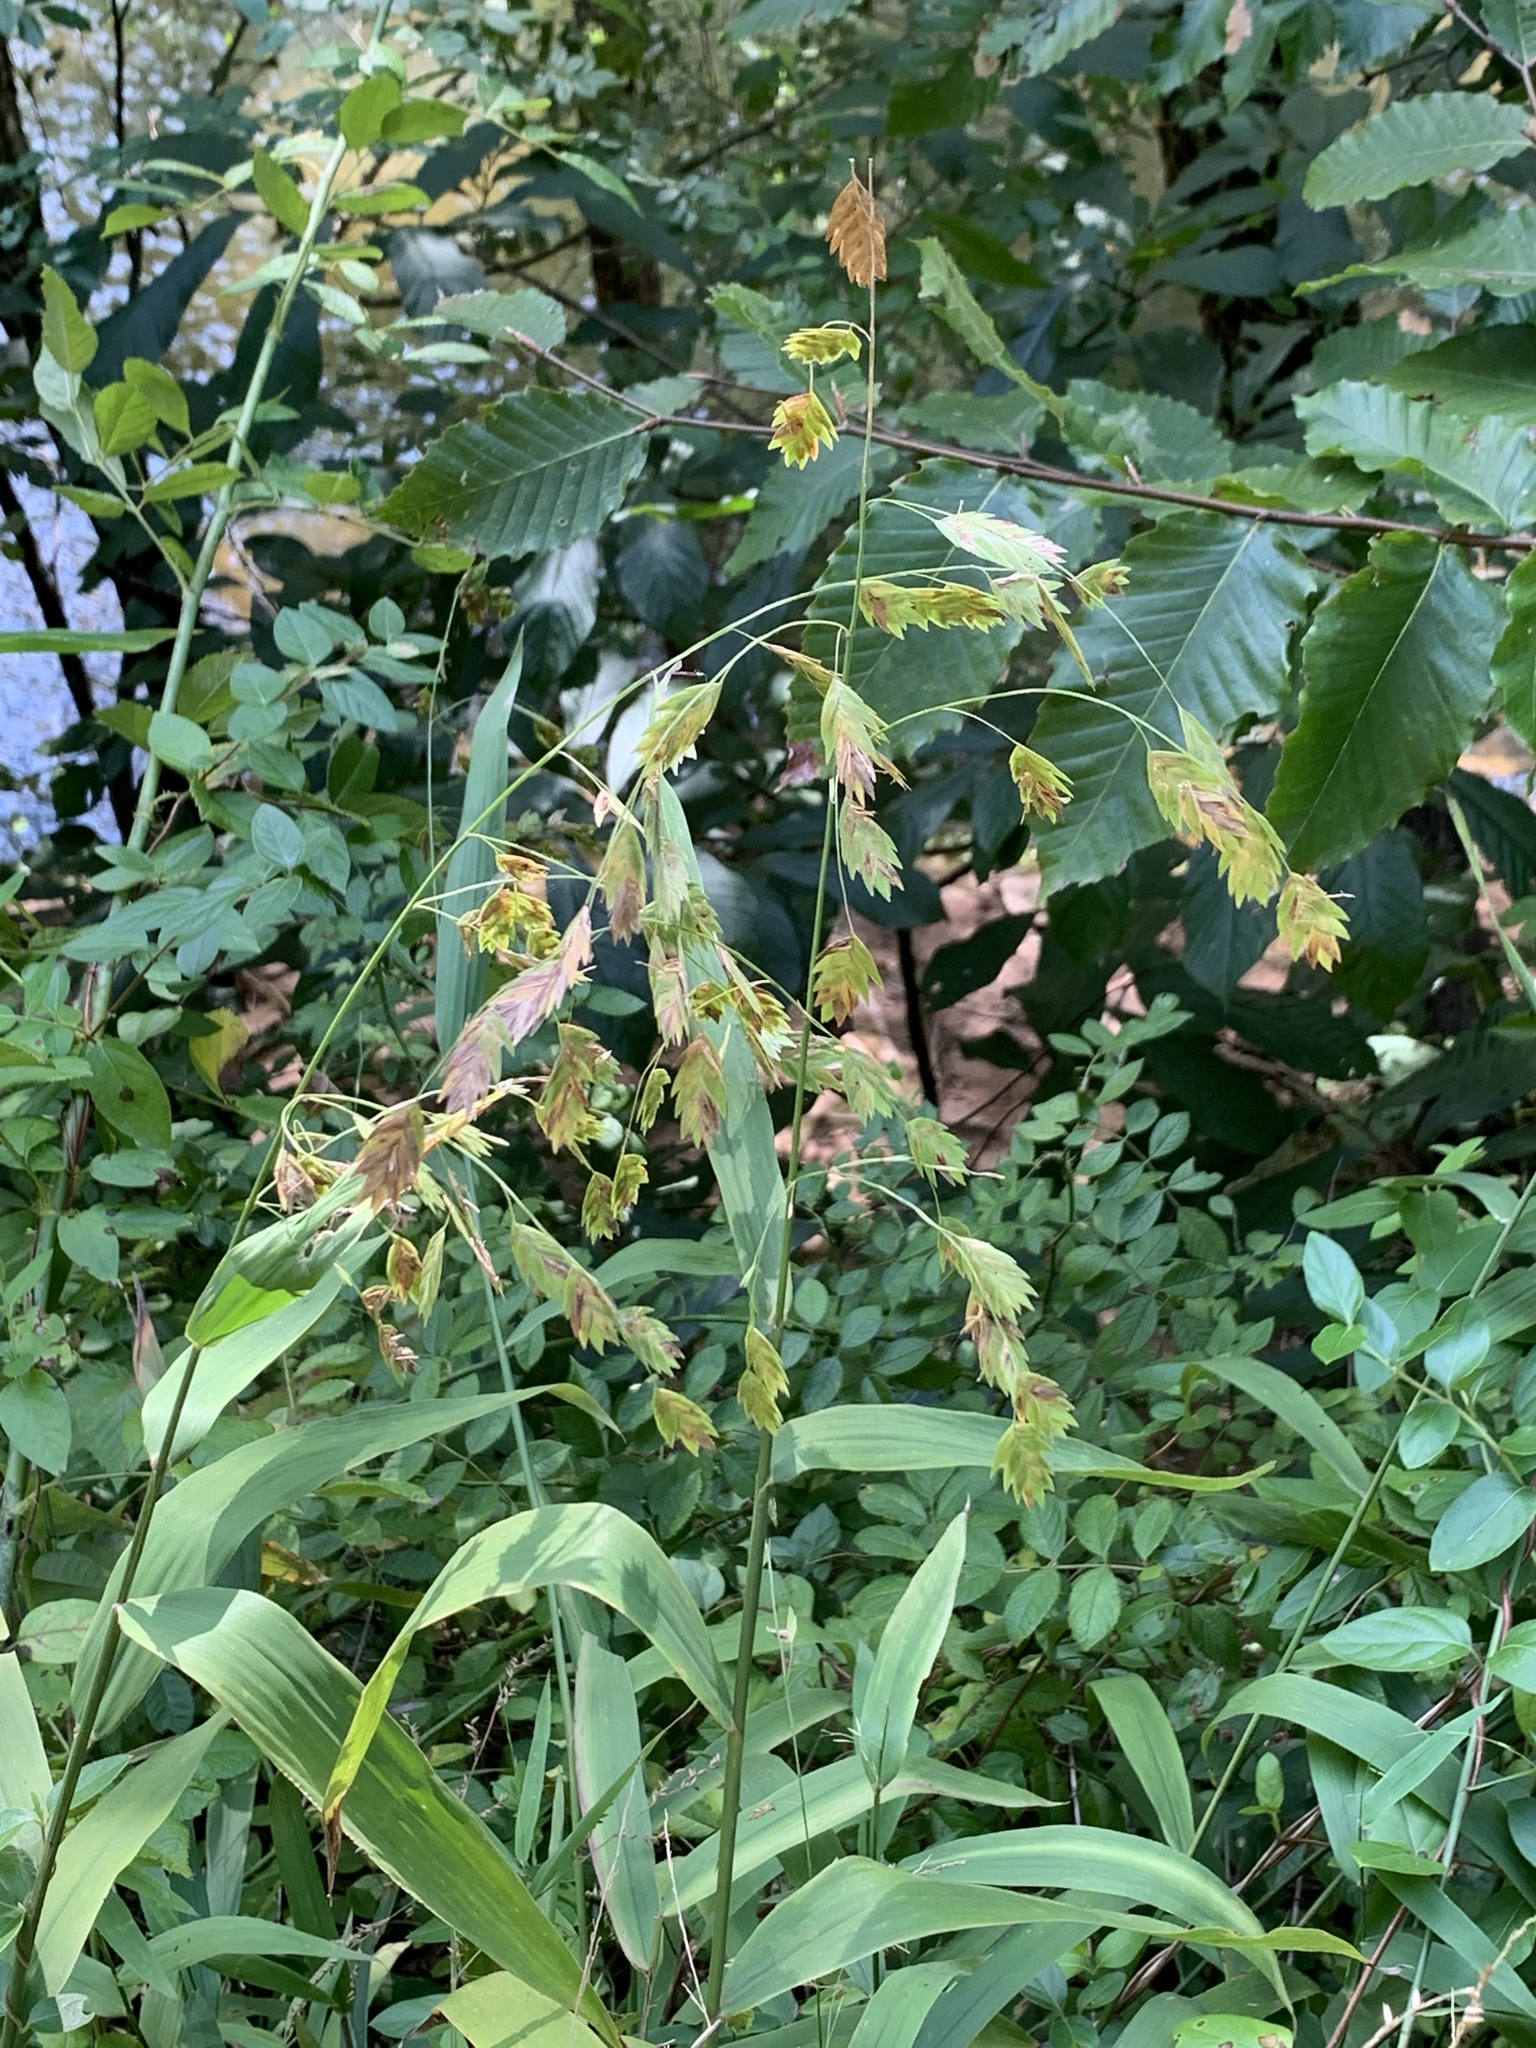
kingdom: Plantae
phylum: Tracheophyta
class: Liliopsida
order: Poales
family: Poaceae
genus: Chasmanthium
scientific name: Chasmanthium latifolium
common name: Broad-leaved chasmanthium
